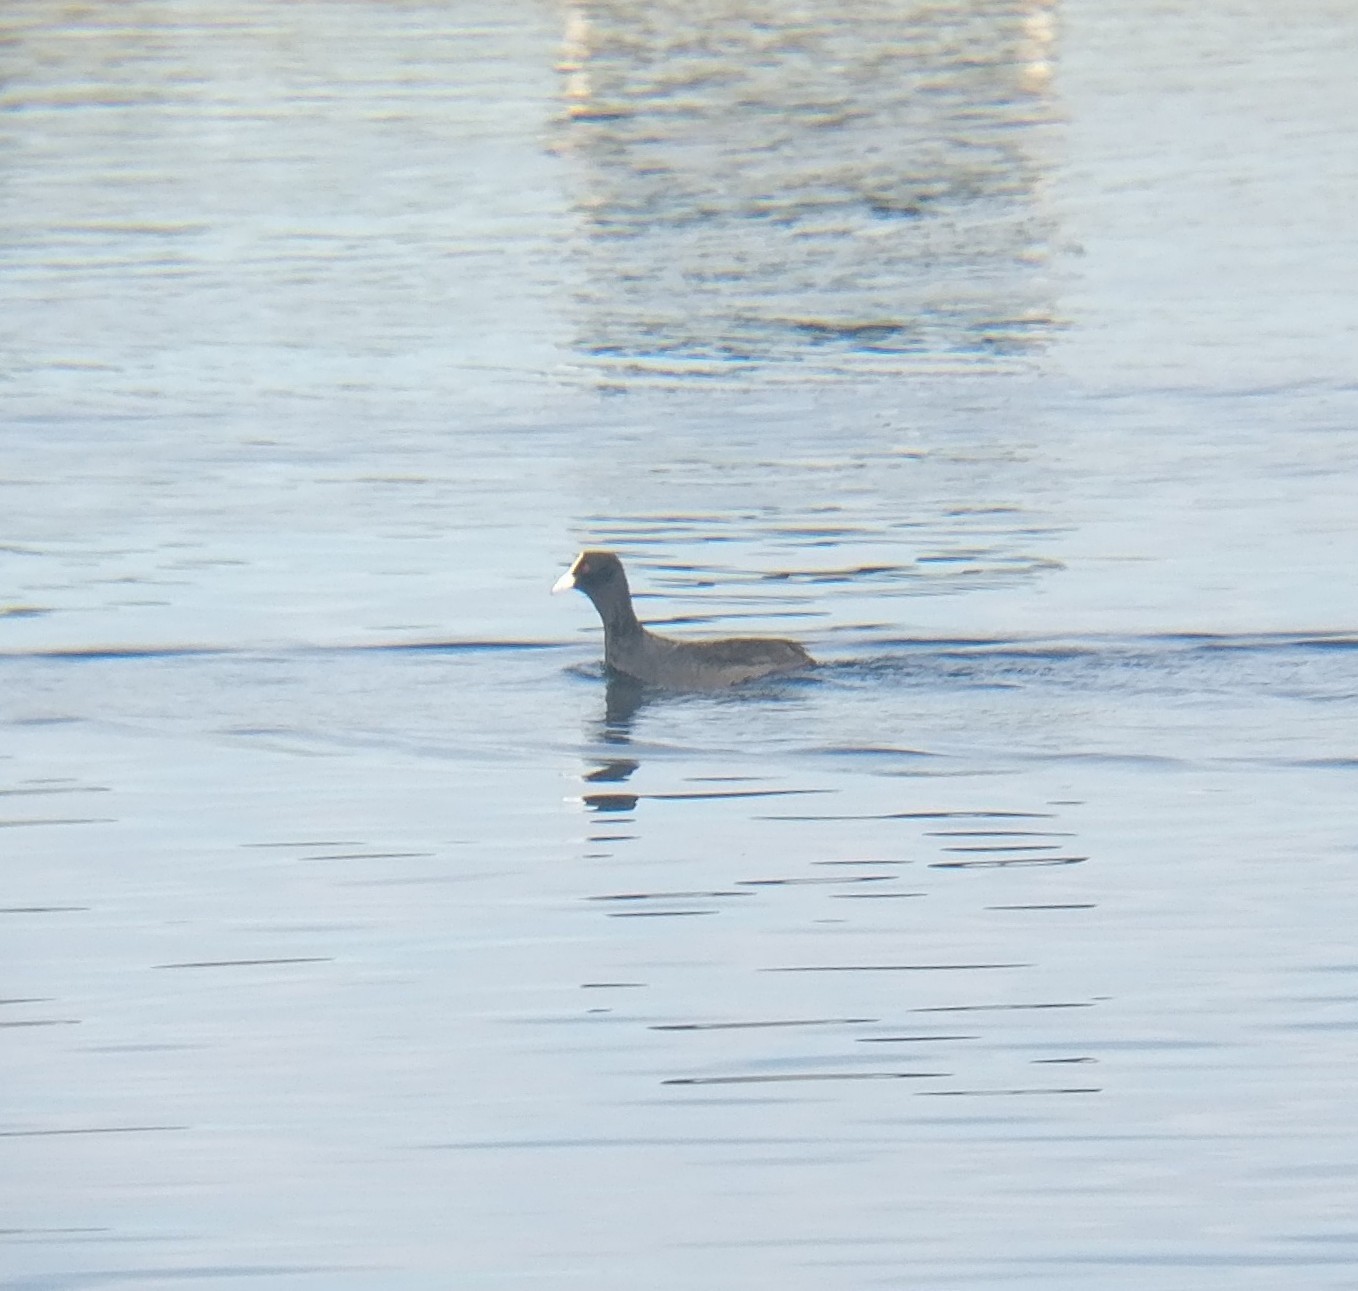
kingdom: Animalia
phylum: Chordata
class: Aves
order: Gruiformes
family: Rallidae
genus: Fulica
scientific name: Fulica atra
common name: Eurasian coot
